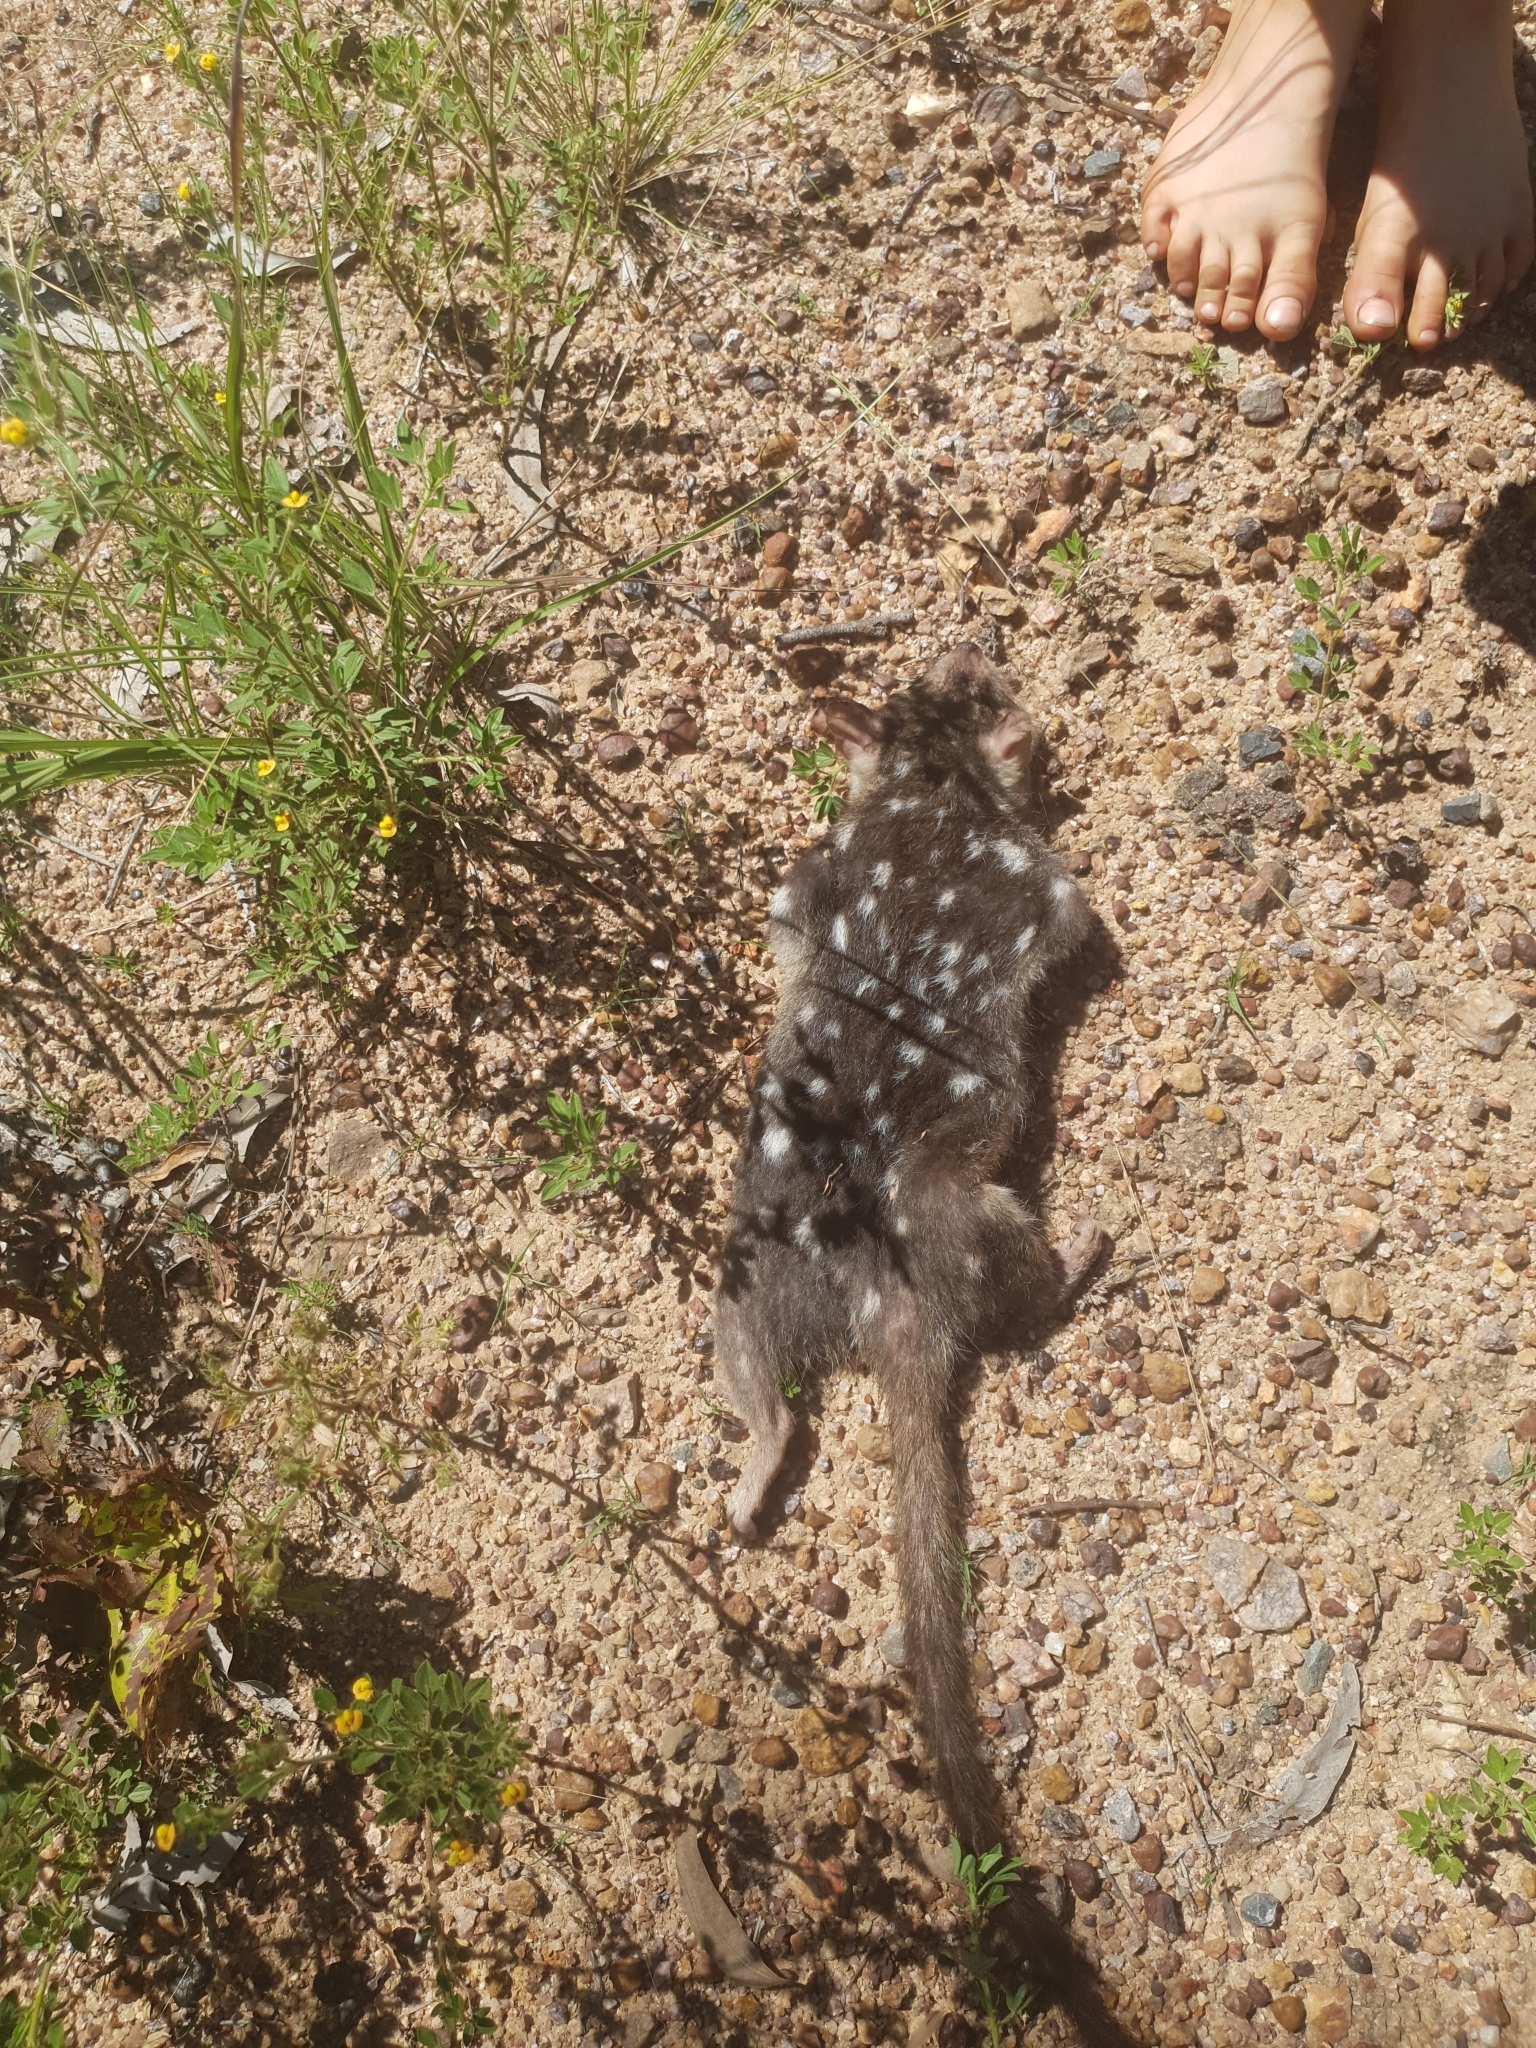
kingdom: Animalia
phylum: Chordata
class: Mammalia
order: Dasyuromorphia
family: Dasyuridae
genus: Dasyurus
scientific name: Dasyurus hallucatus
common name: Northern quoll
